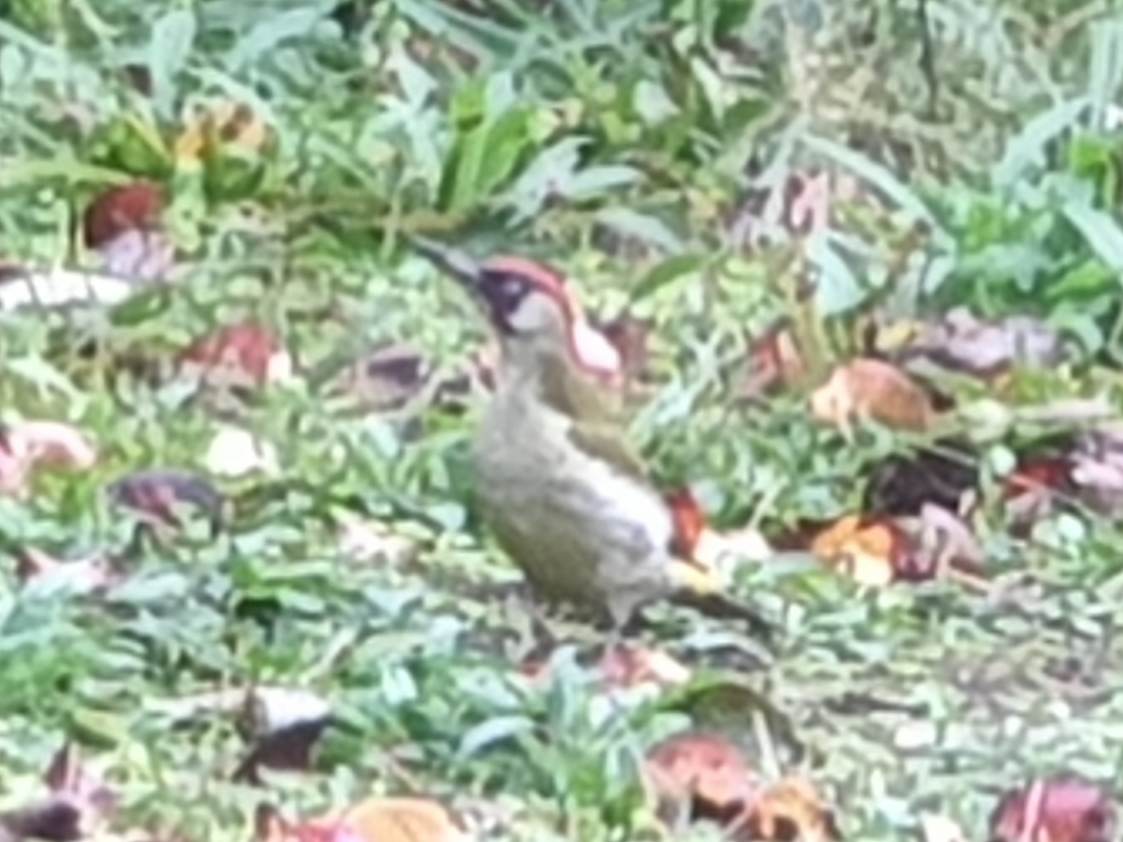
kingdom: Animalia
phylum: Chordata
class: Aves
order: Piciformes
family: Picidae
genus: Picus
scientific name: Picus viridis
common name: European green woodpecker
